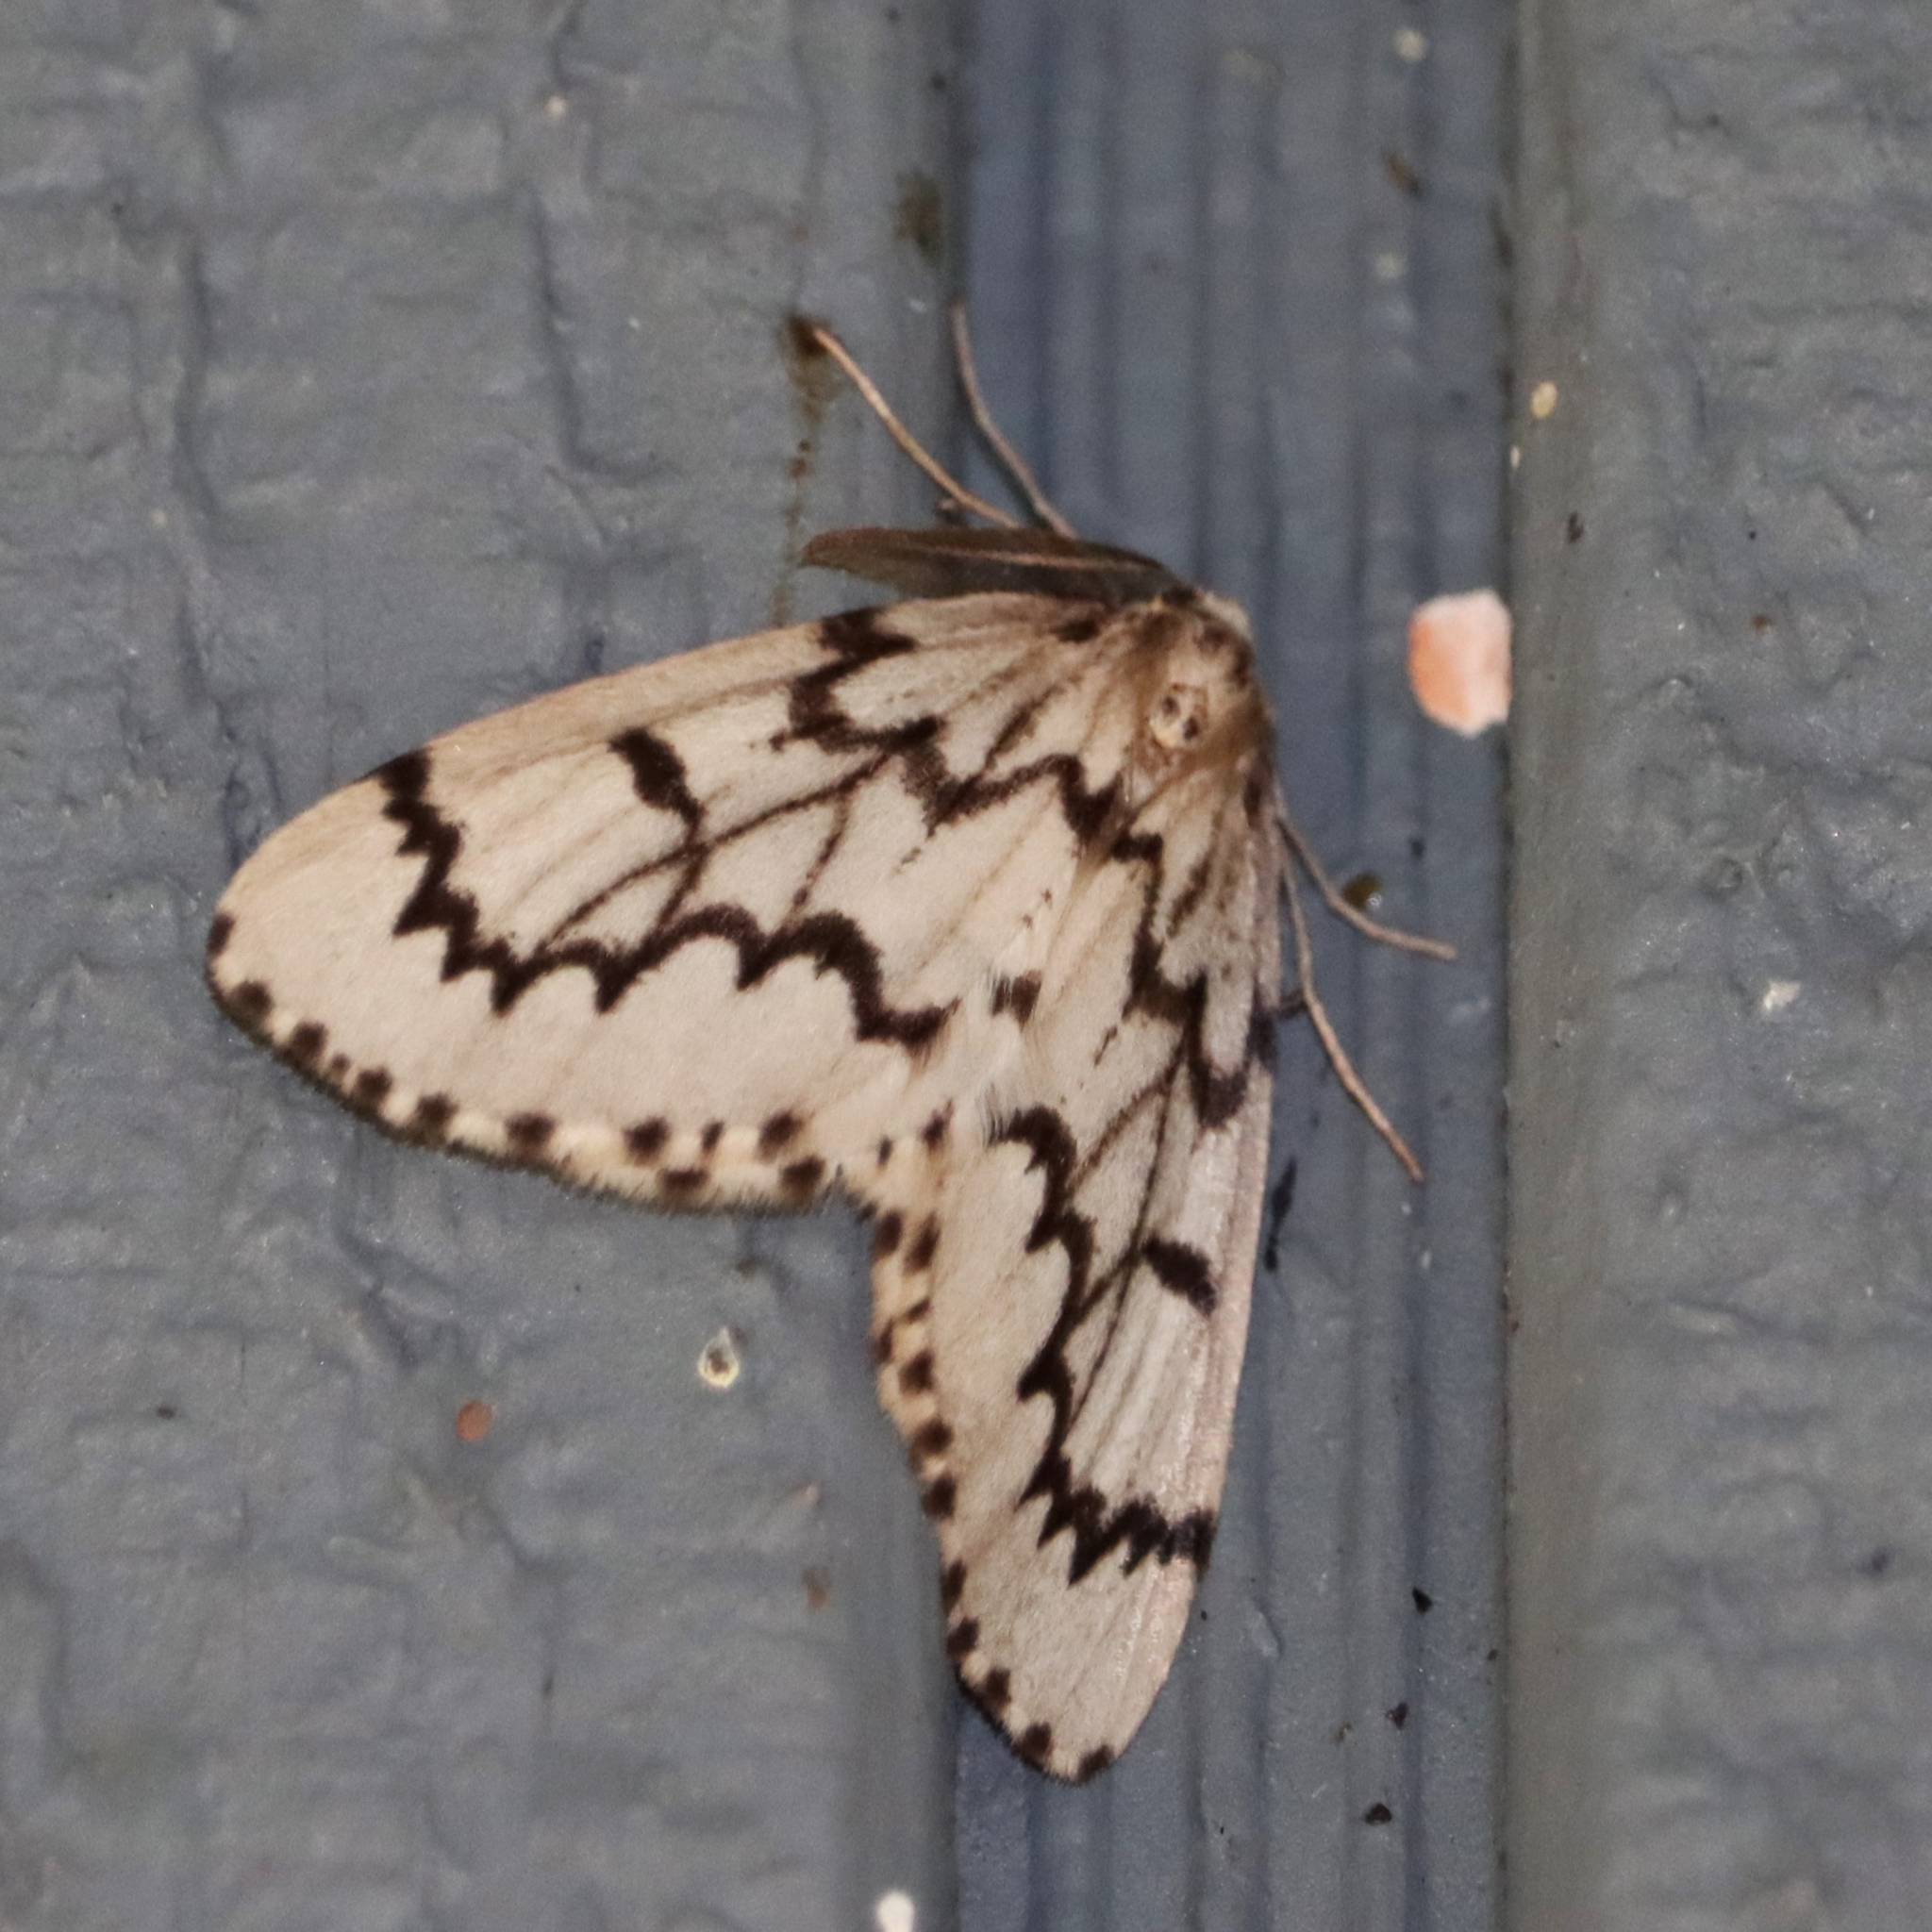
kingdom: Animalia
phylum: Arthropoda
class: Insecta
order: Lepidoptera
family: Geometridae
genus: Nepytia
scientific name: Nepytia phantasmaria
